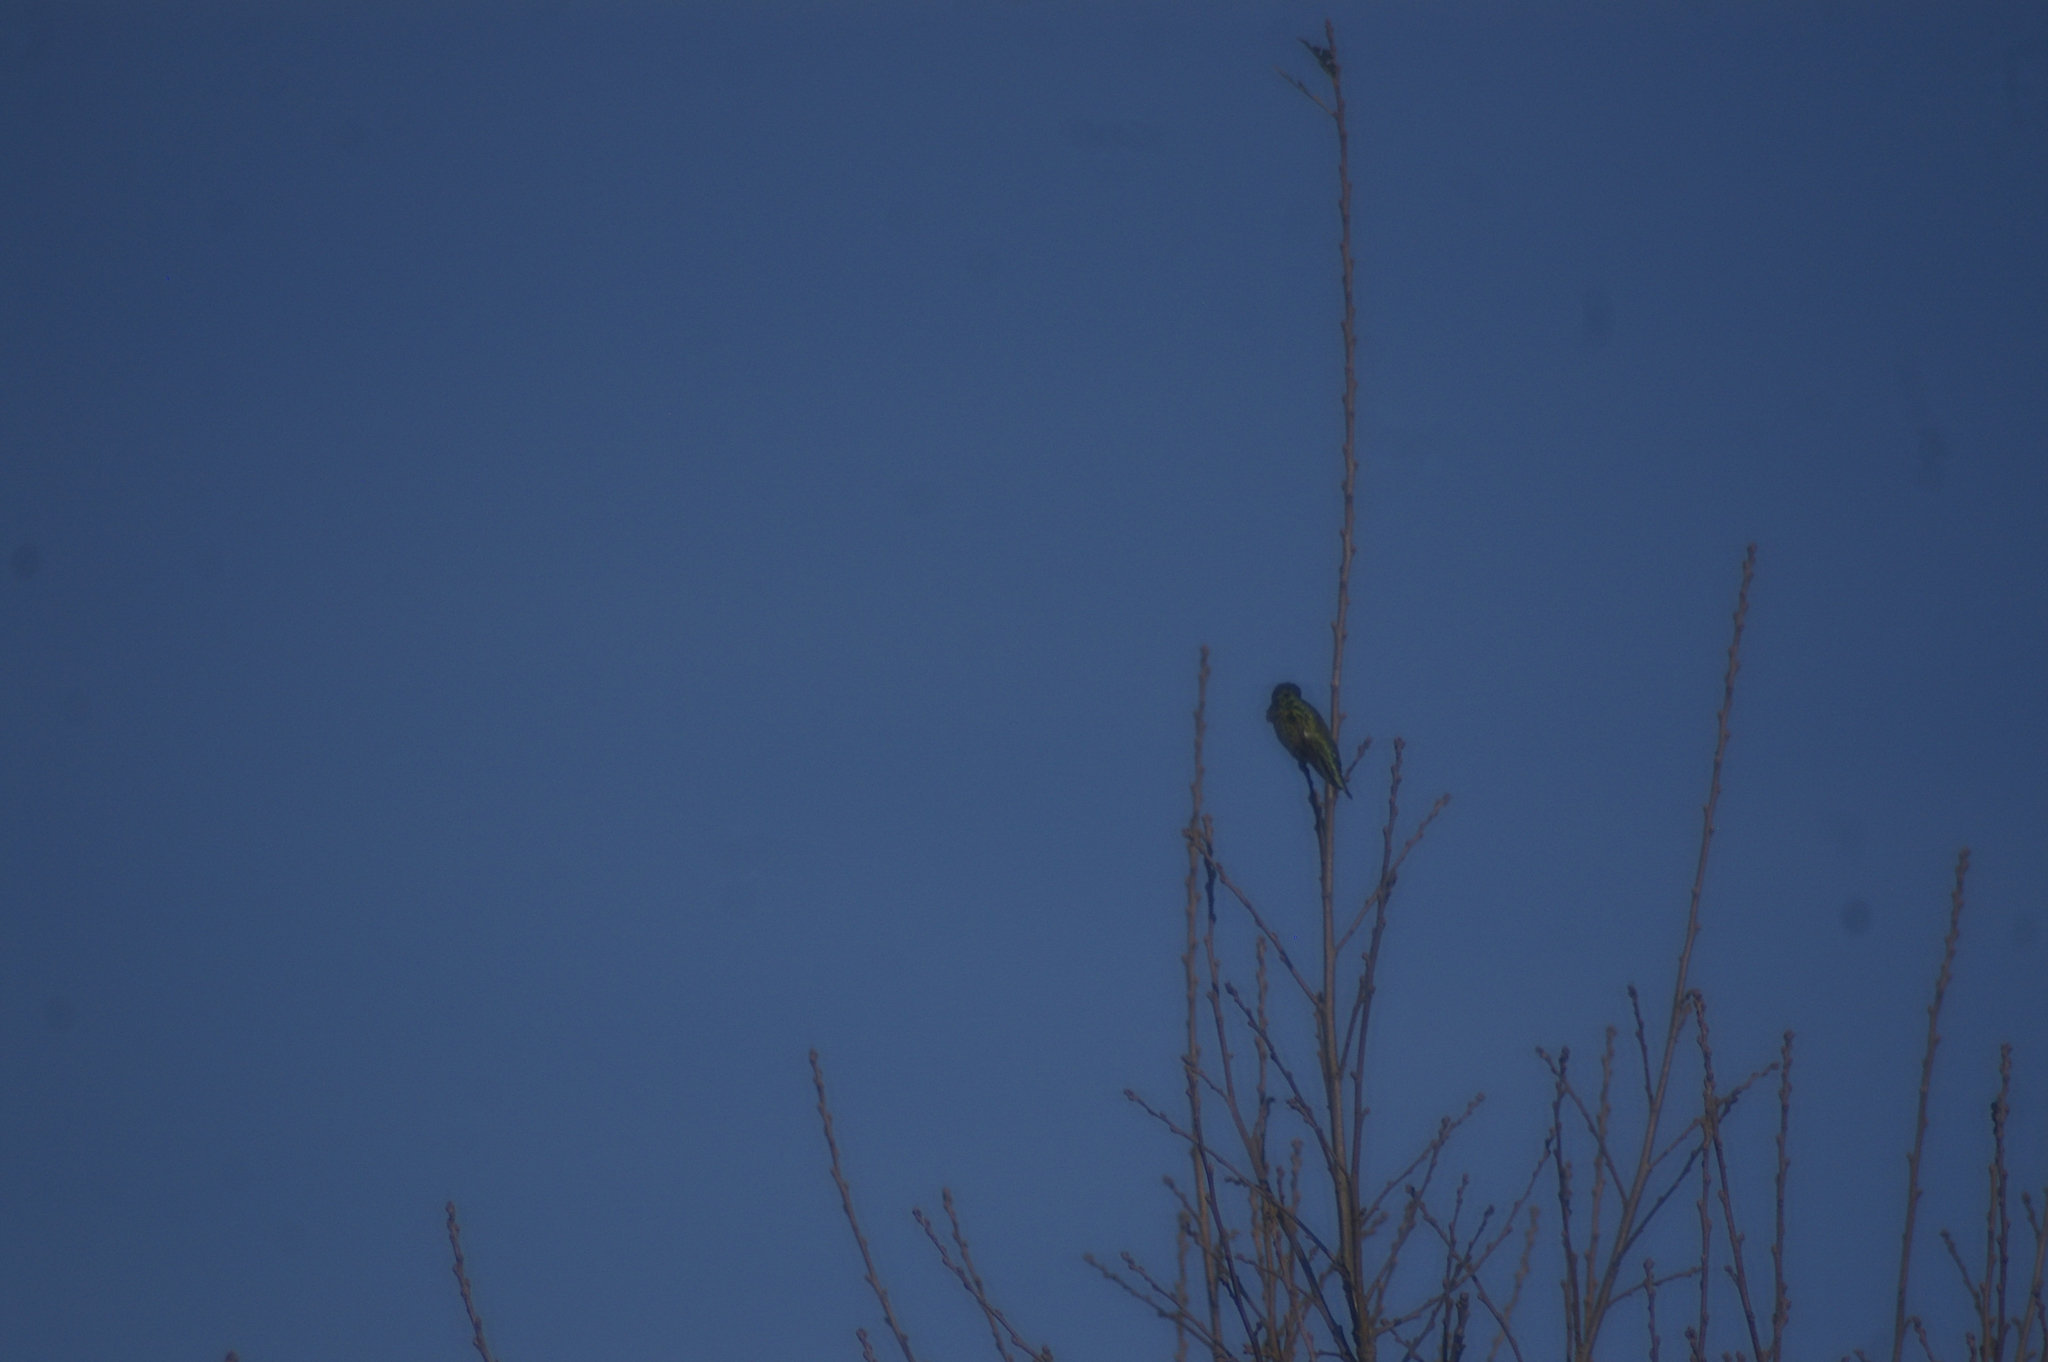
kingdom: Animalia
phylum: Chordata
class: Aves
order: Apodiformes
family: Trochilidae
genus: Calypte
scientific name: Calypte anna
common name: Anna's hummingbird
